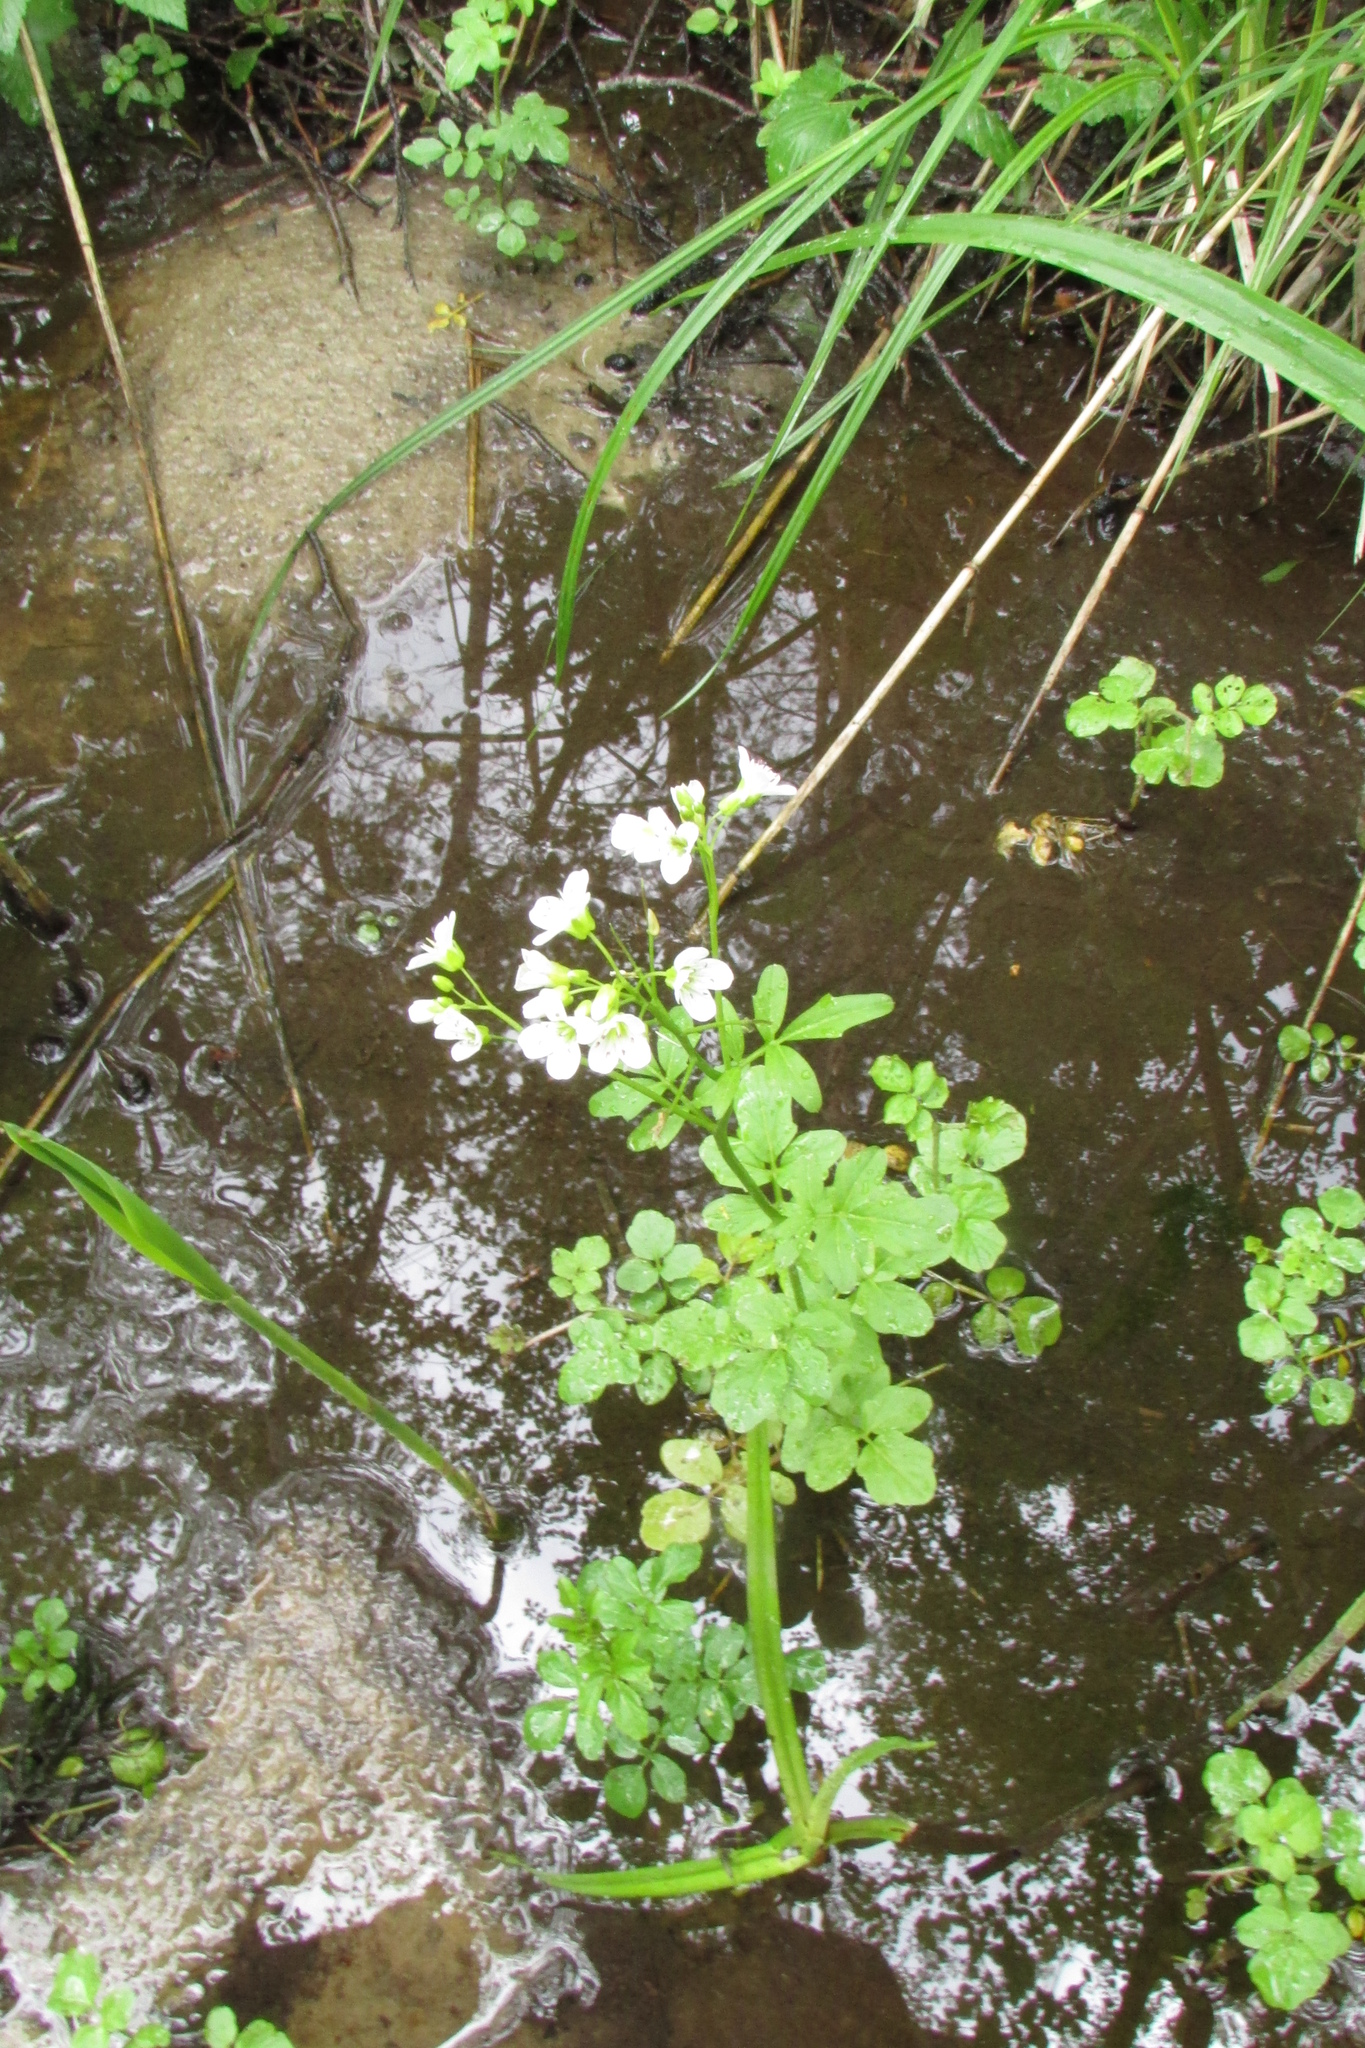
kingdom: Plantae
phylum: Tracheophyta
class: Magnoliopsida
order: Brassicales
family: Brassicaceae
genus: Cardamine
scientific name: Cardamine amara
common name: Large bitter-cress
